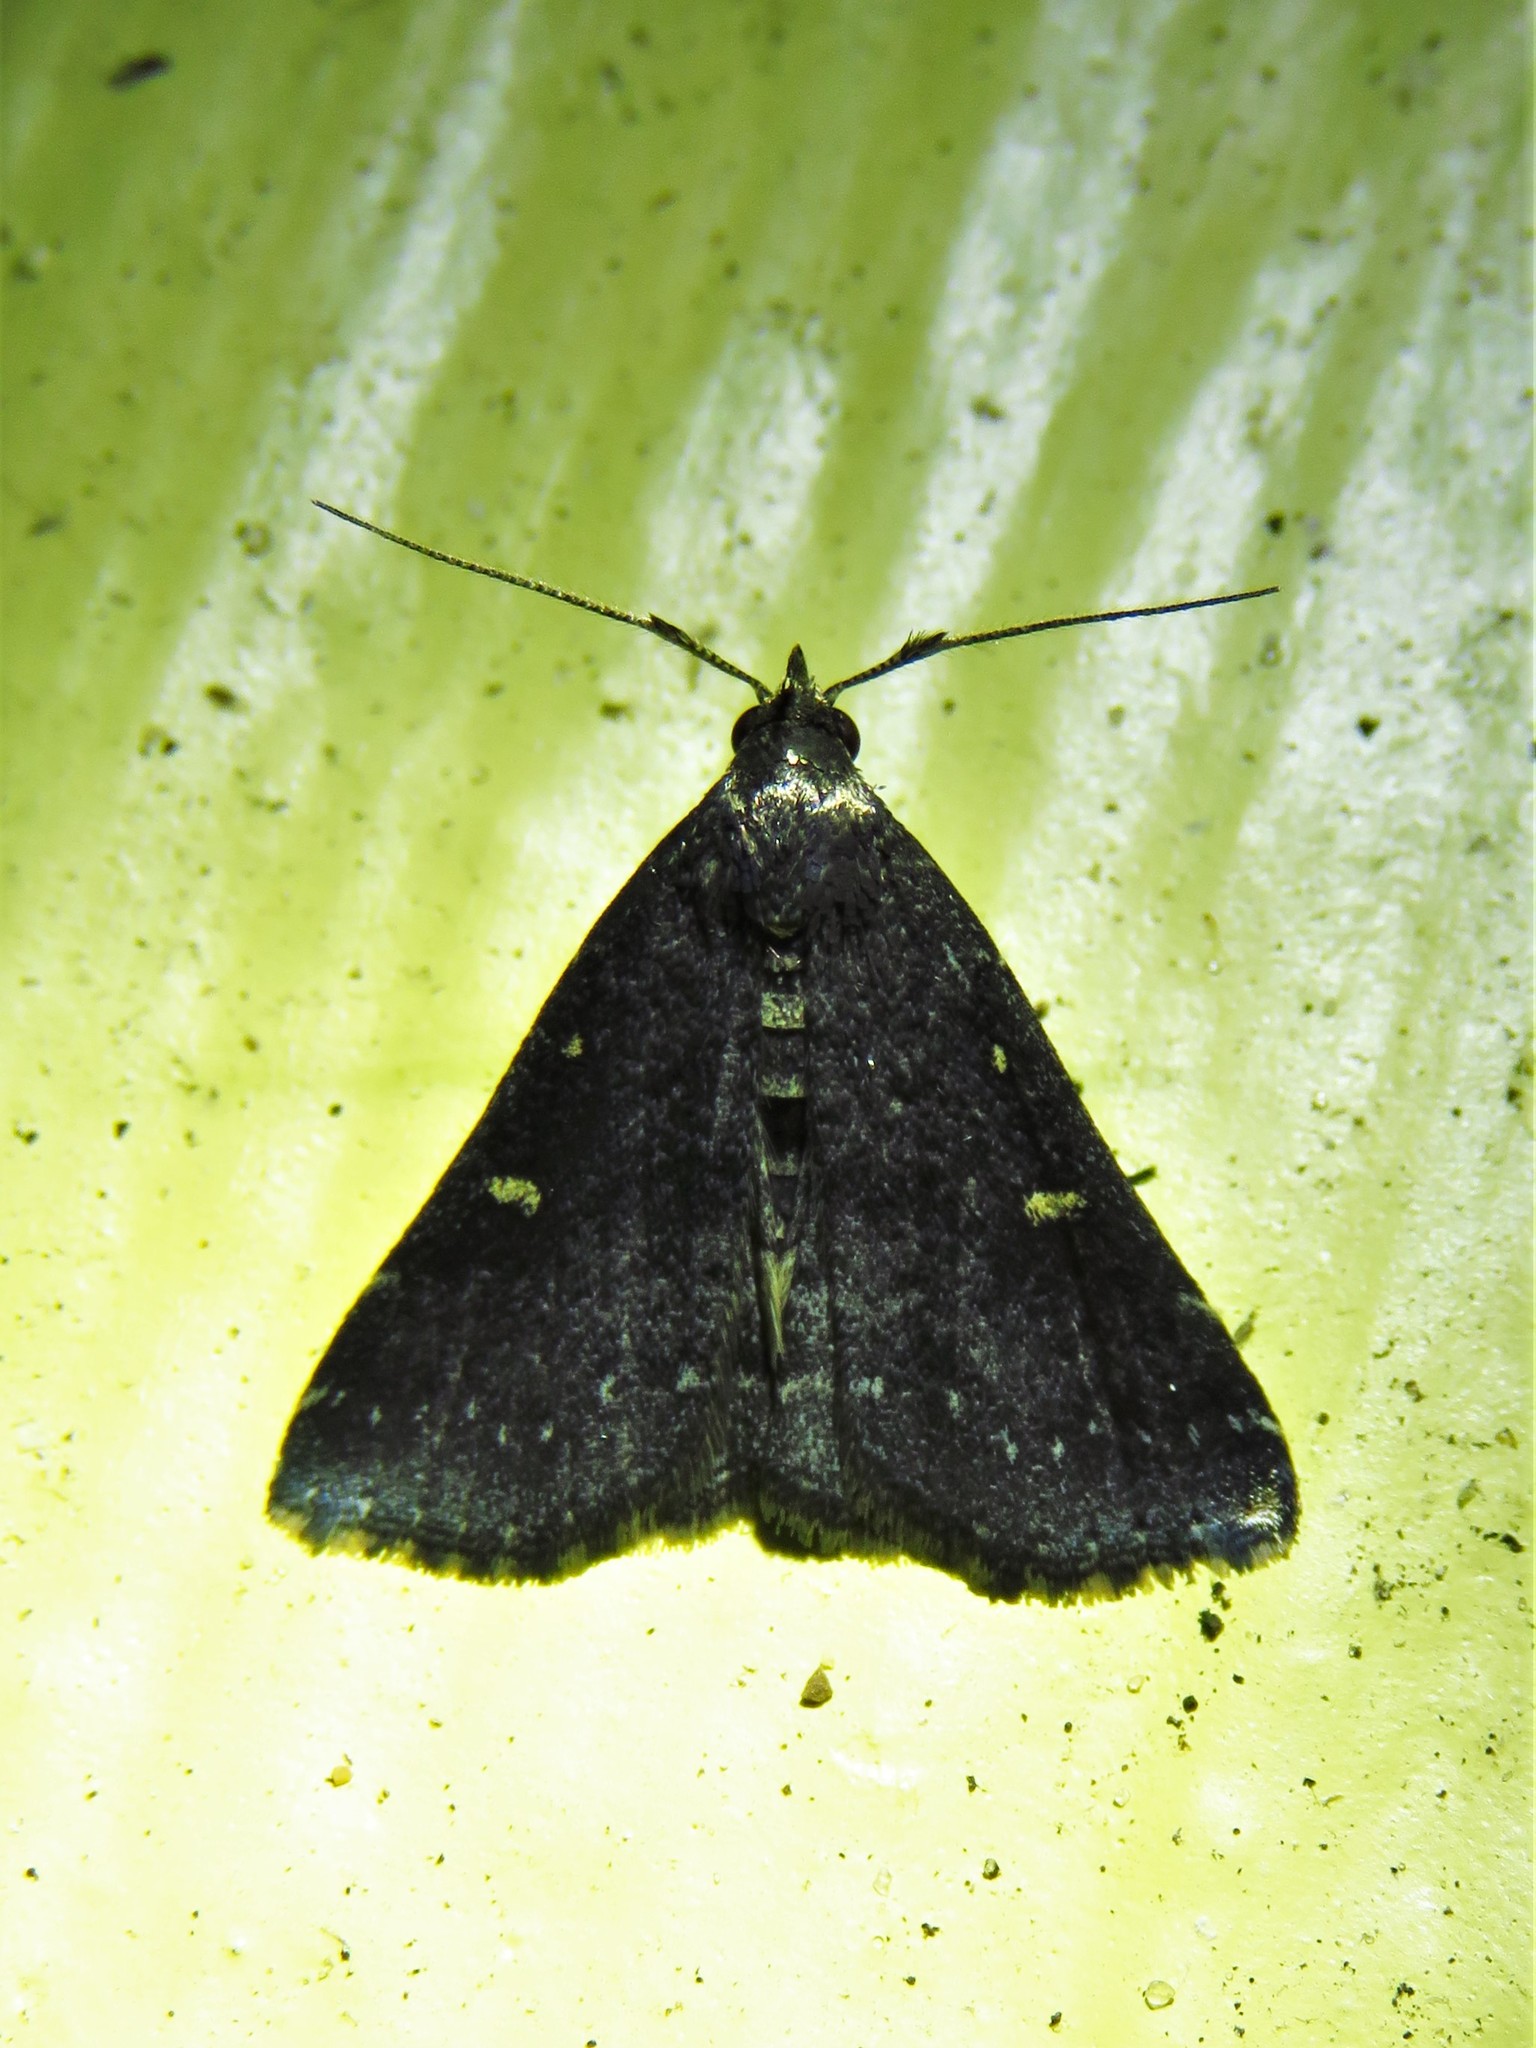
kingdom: Animalia
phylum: Arthropoda
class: Insecta
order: Lepidoptera
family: Erebidae
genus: Tetanolita
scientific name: Tetanolita mynesalis
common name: Smoky tetanolita moth
